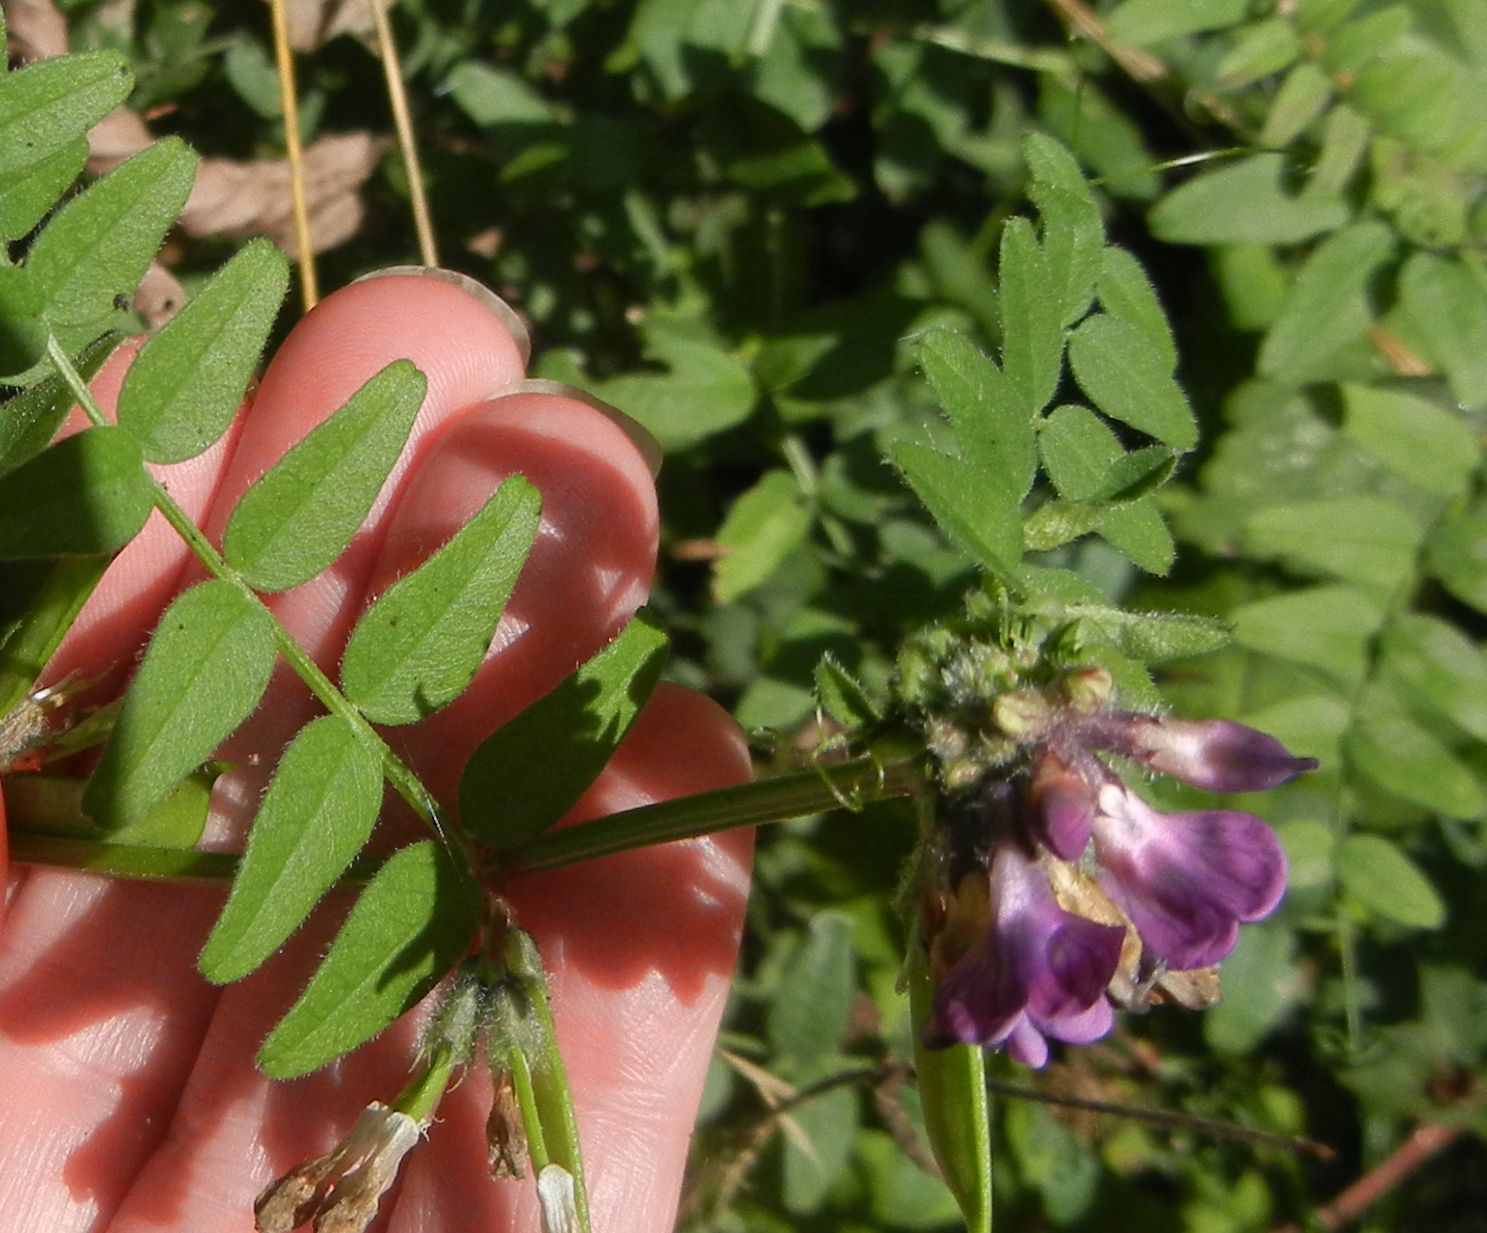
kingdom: Plantae
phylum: Tracheophyta
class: Magnoliopsida
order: Fabales
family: Fabaceae
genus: Vicia
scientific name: Vicia sepium
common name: Bush vetch
